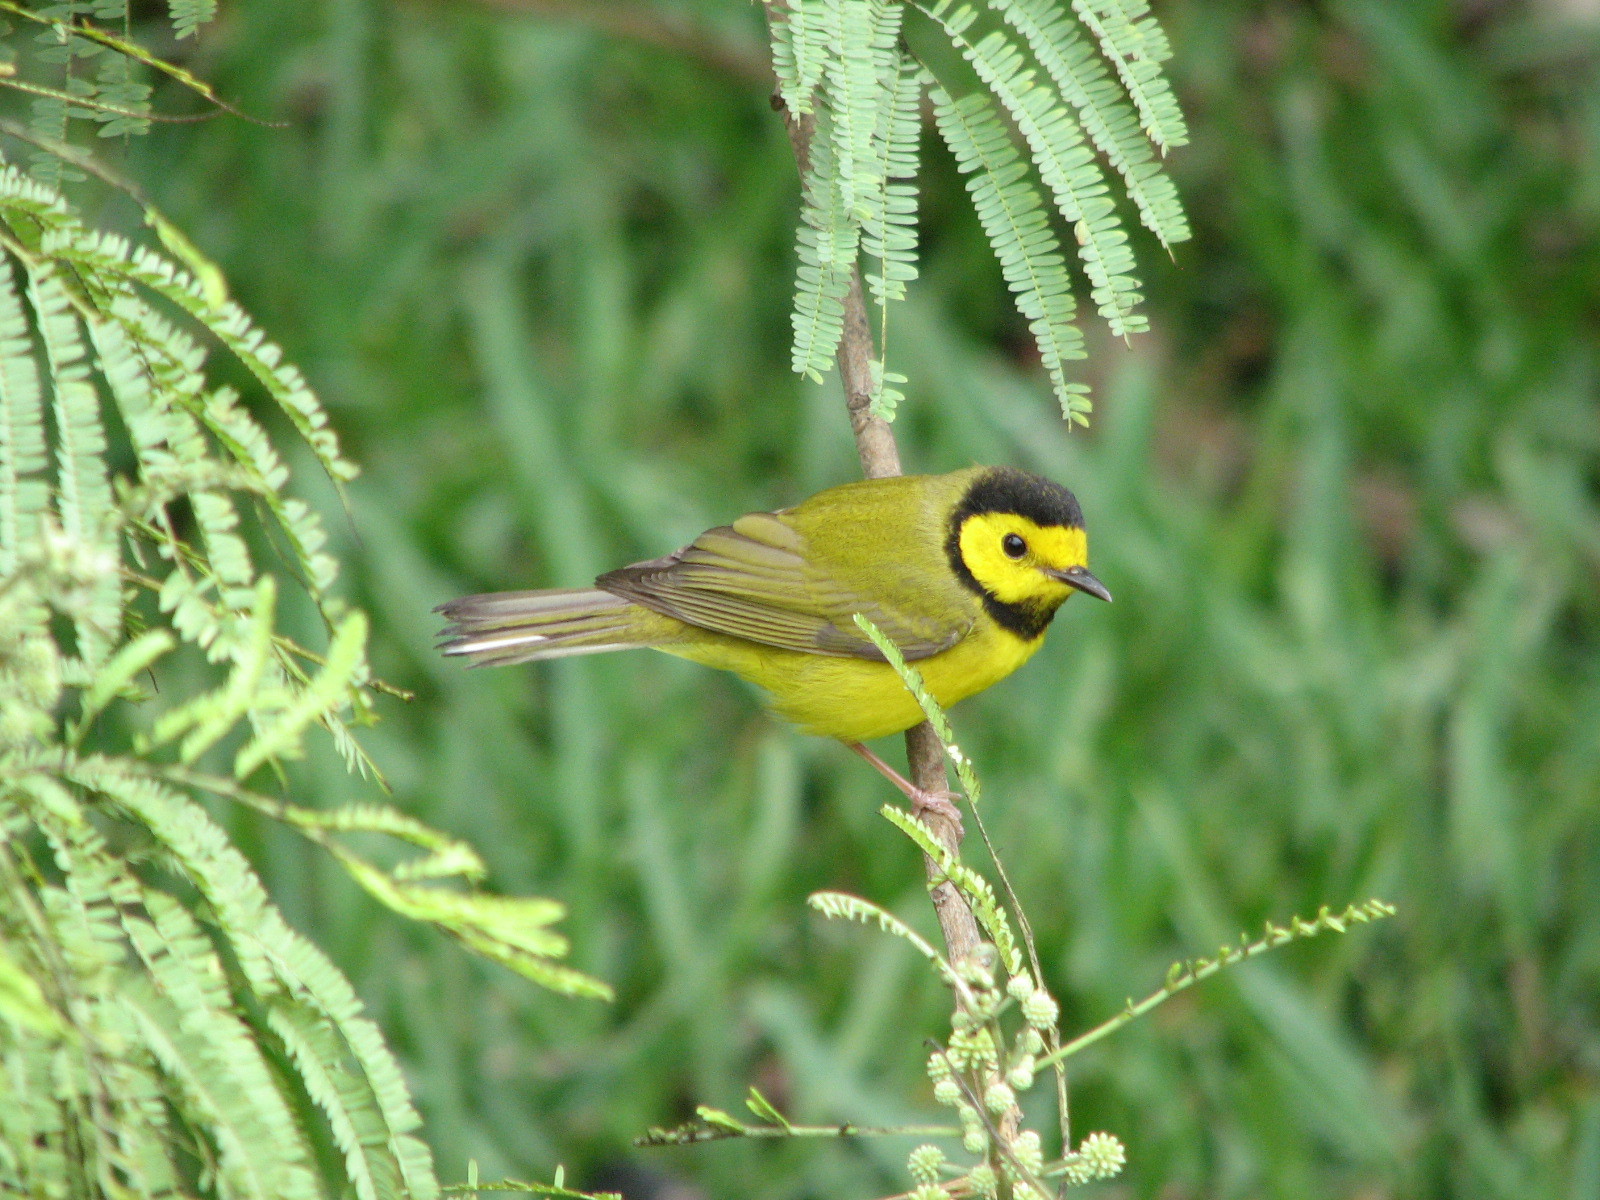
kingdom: Animalia
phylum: Chordata
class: Aves
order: Passeriformes
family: Parulidae
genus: Setophaga
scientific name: Setophaga citrina
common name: Hooded warbler
